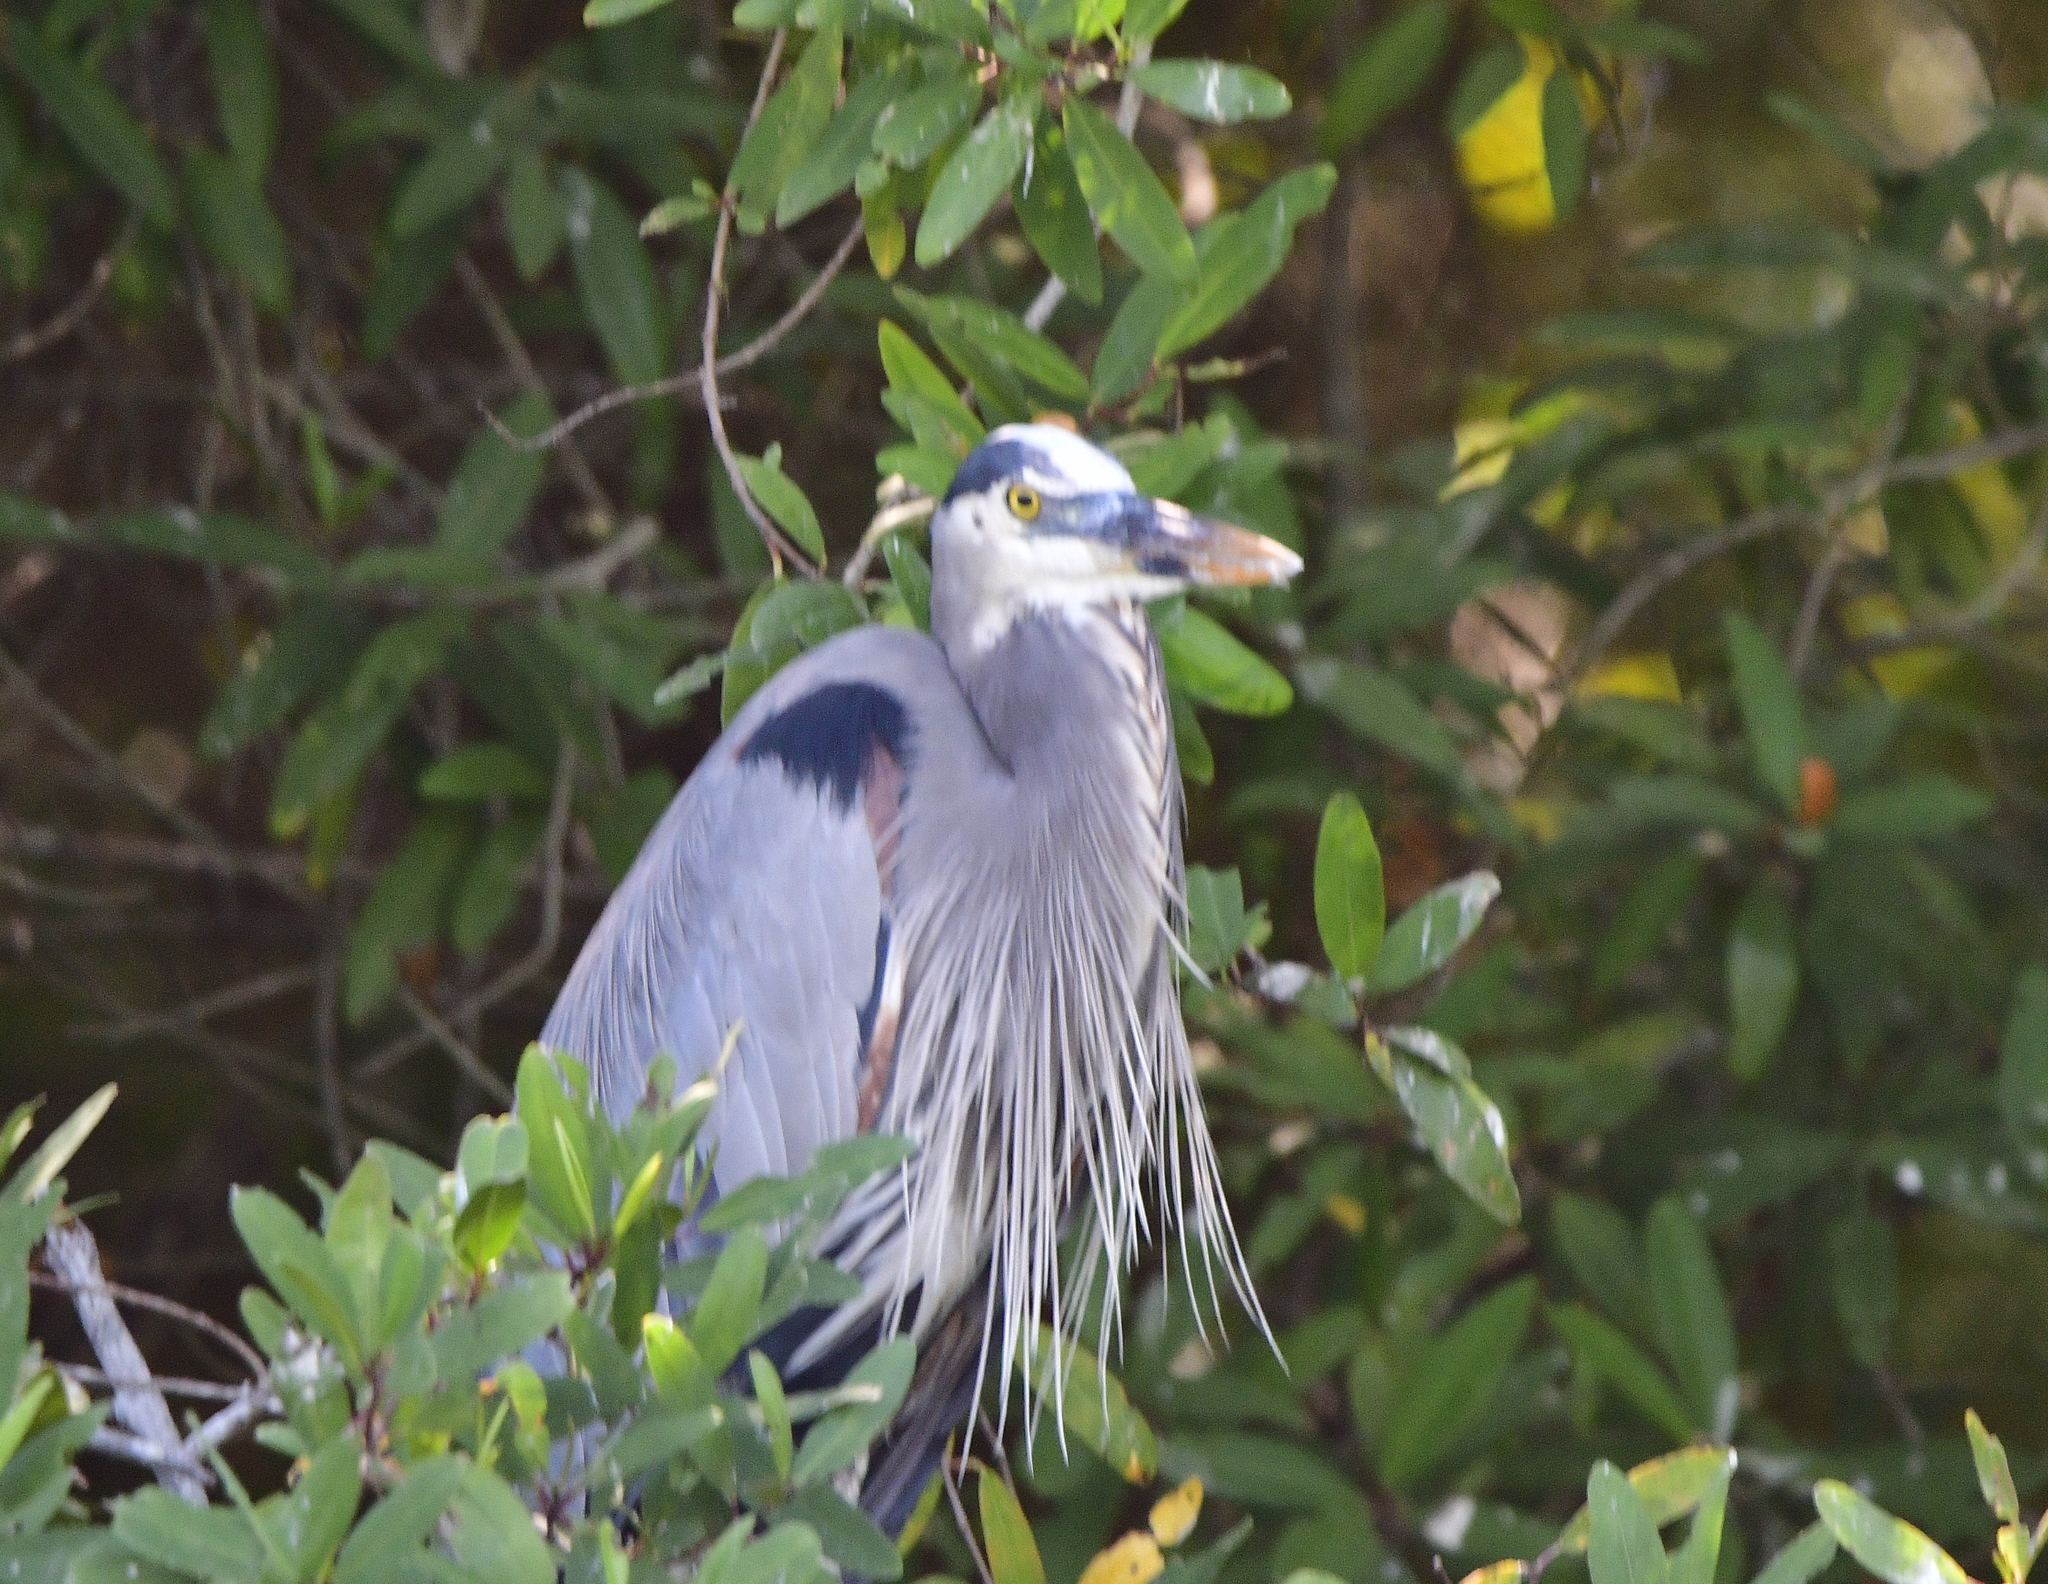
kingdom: Animalia
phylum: Chordata
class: Aves
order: Pelecaniformes
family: Ardeidae
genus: Ardea
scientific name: Ardea herodias
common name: Great blue heron
